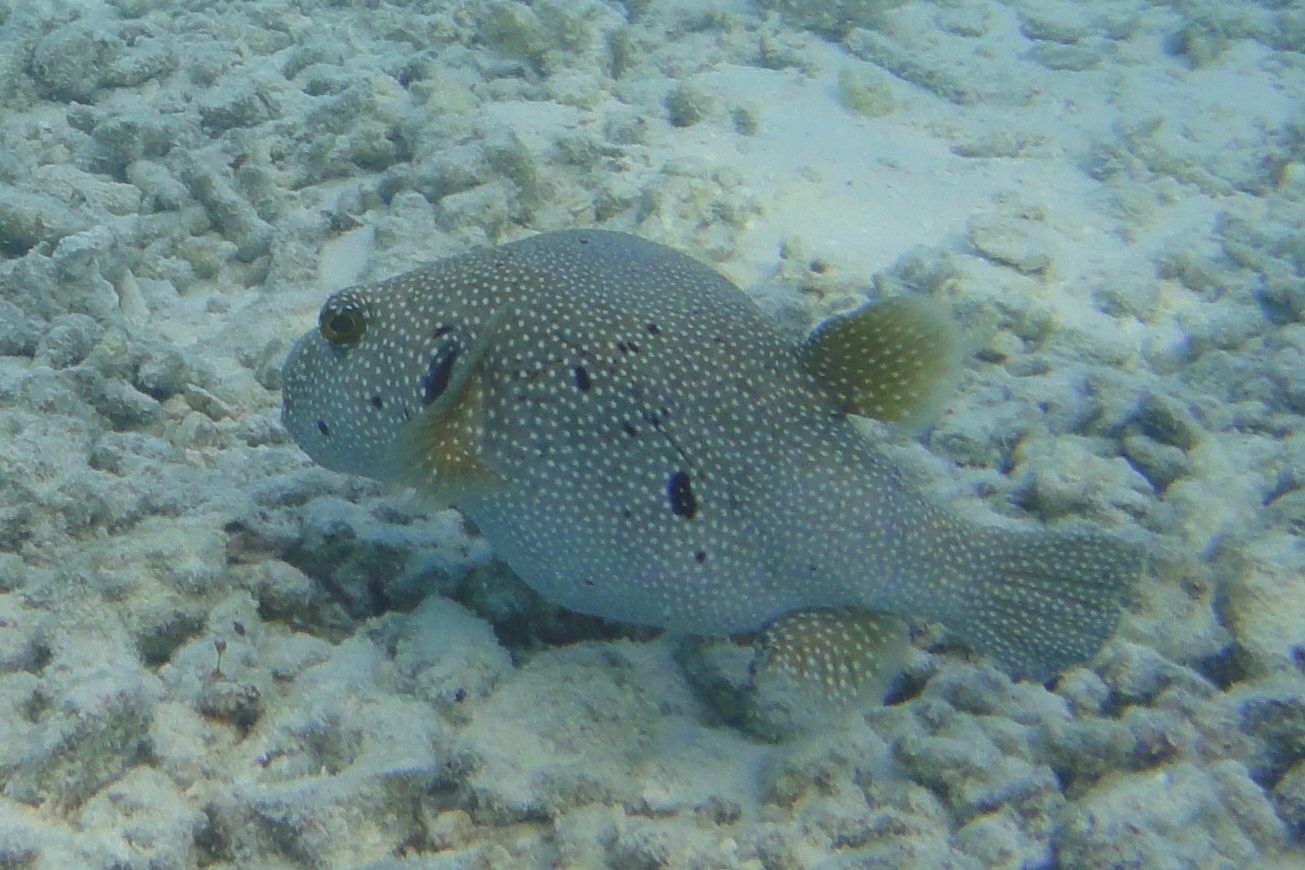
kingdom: Animalia
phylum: Chordata
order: Tetraodontiformes
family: Tetraodontidae
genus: Arothron
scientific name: Arothron meleagris
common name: Guinea-fowl pufferfish
